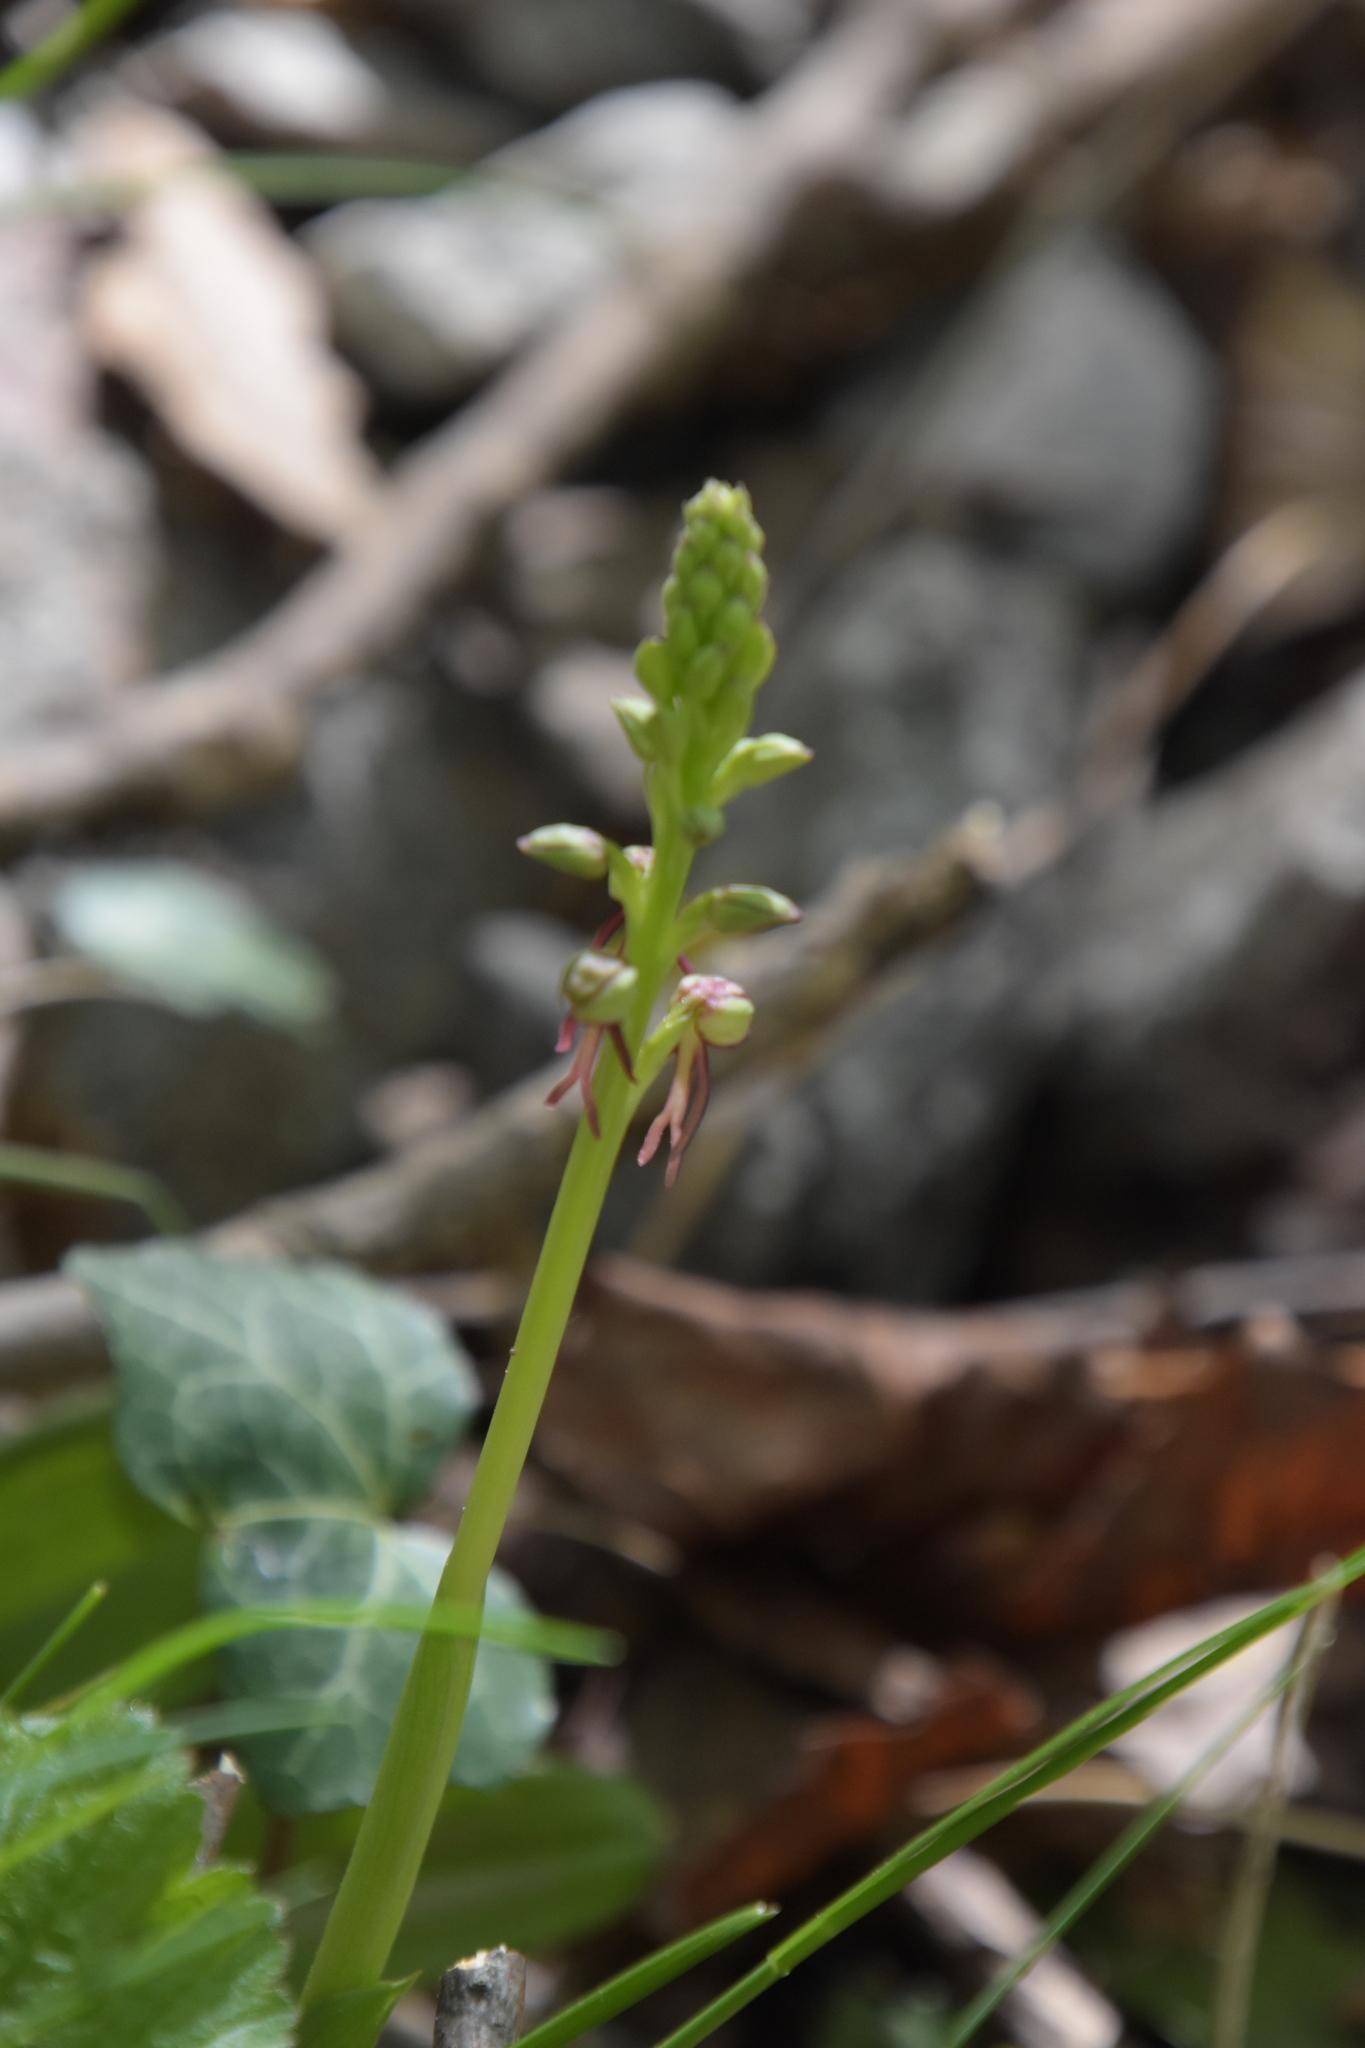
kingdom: Plantae
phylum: Tracheophyta
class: Liliopsida
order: Asparagales
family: Orchidaceae
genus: Orchis
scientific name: Orchis anthropophora
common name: Man orchid
